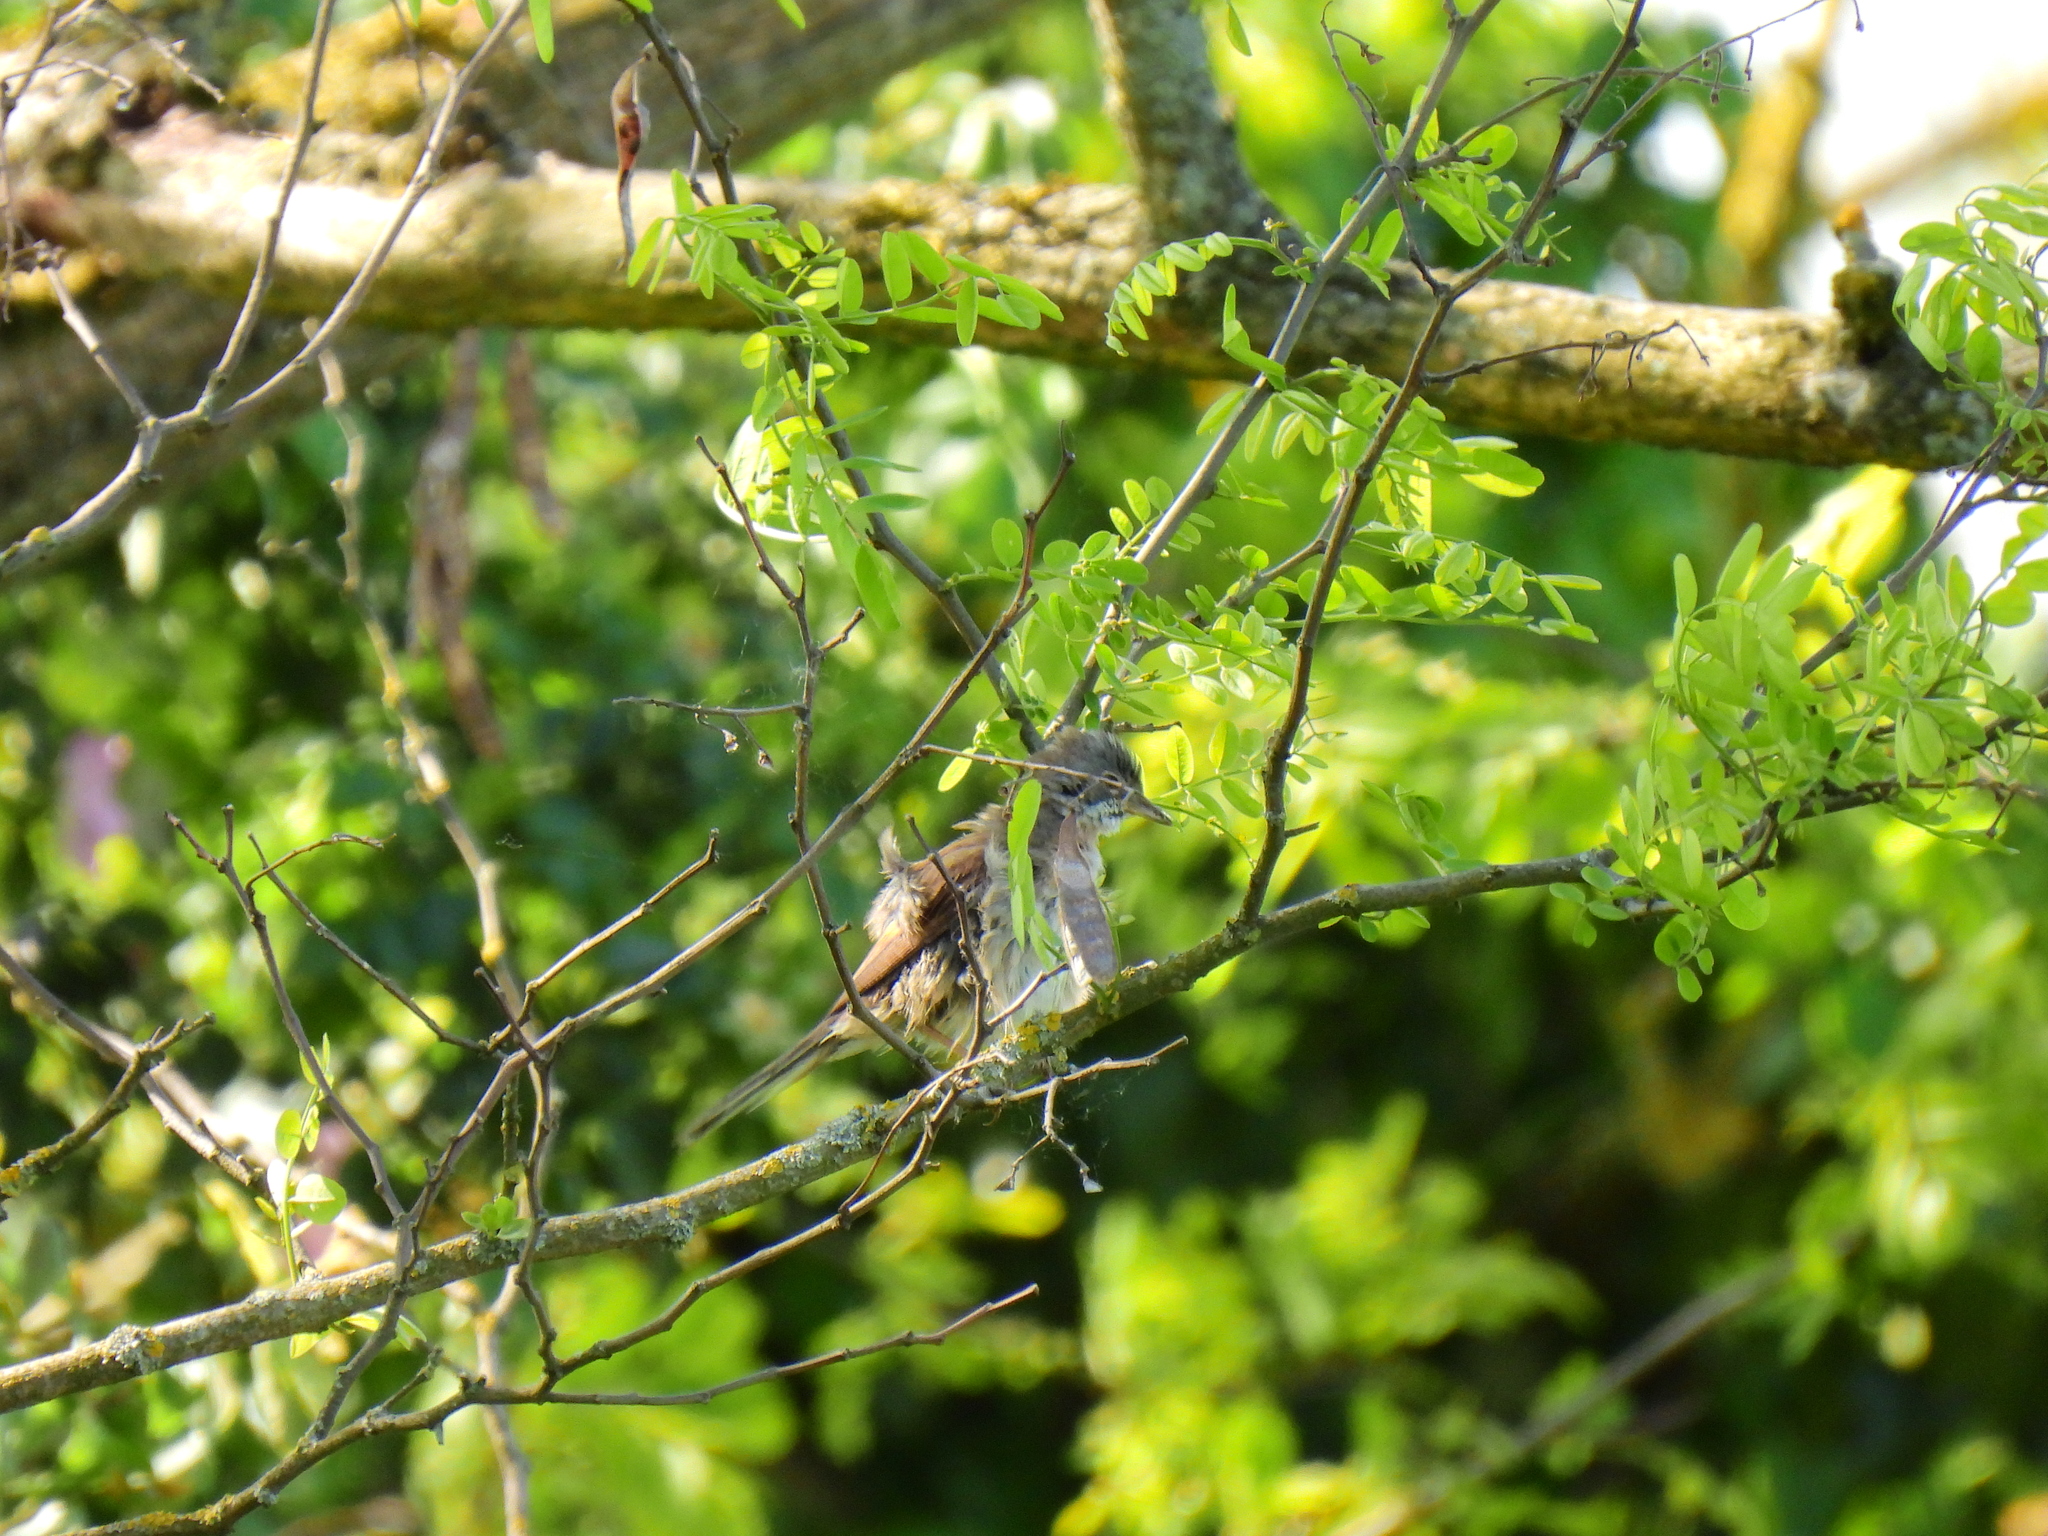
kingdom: Animalia
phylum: Chordata
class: Aves
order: Passeriformes
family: Sylviidae
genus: Sylvia
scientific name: Sylvia communis
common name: Common whitethroat
